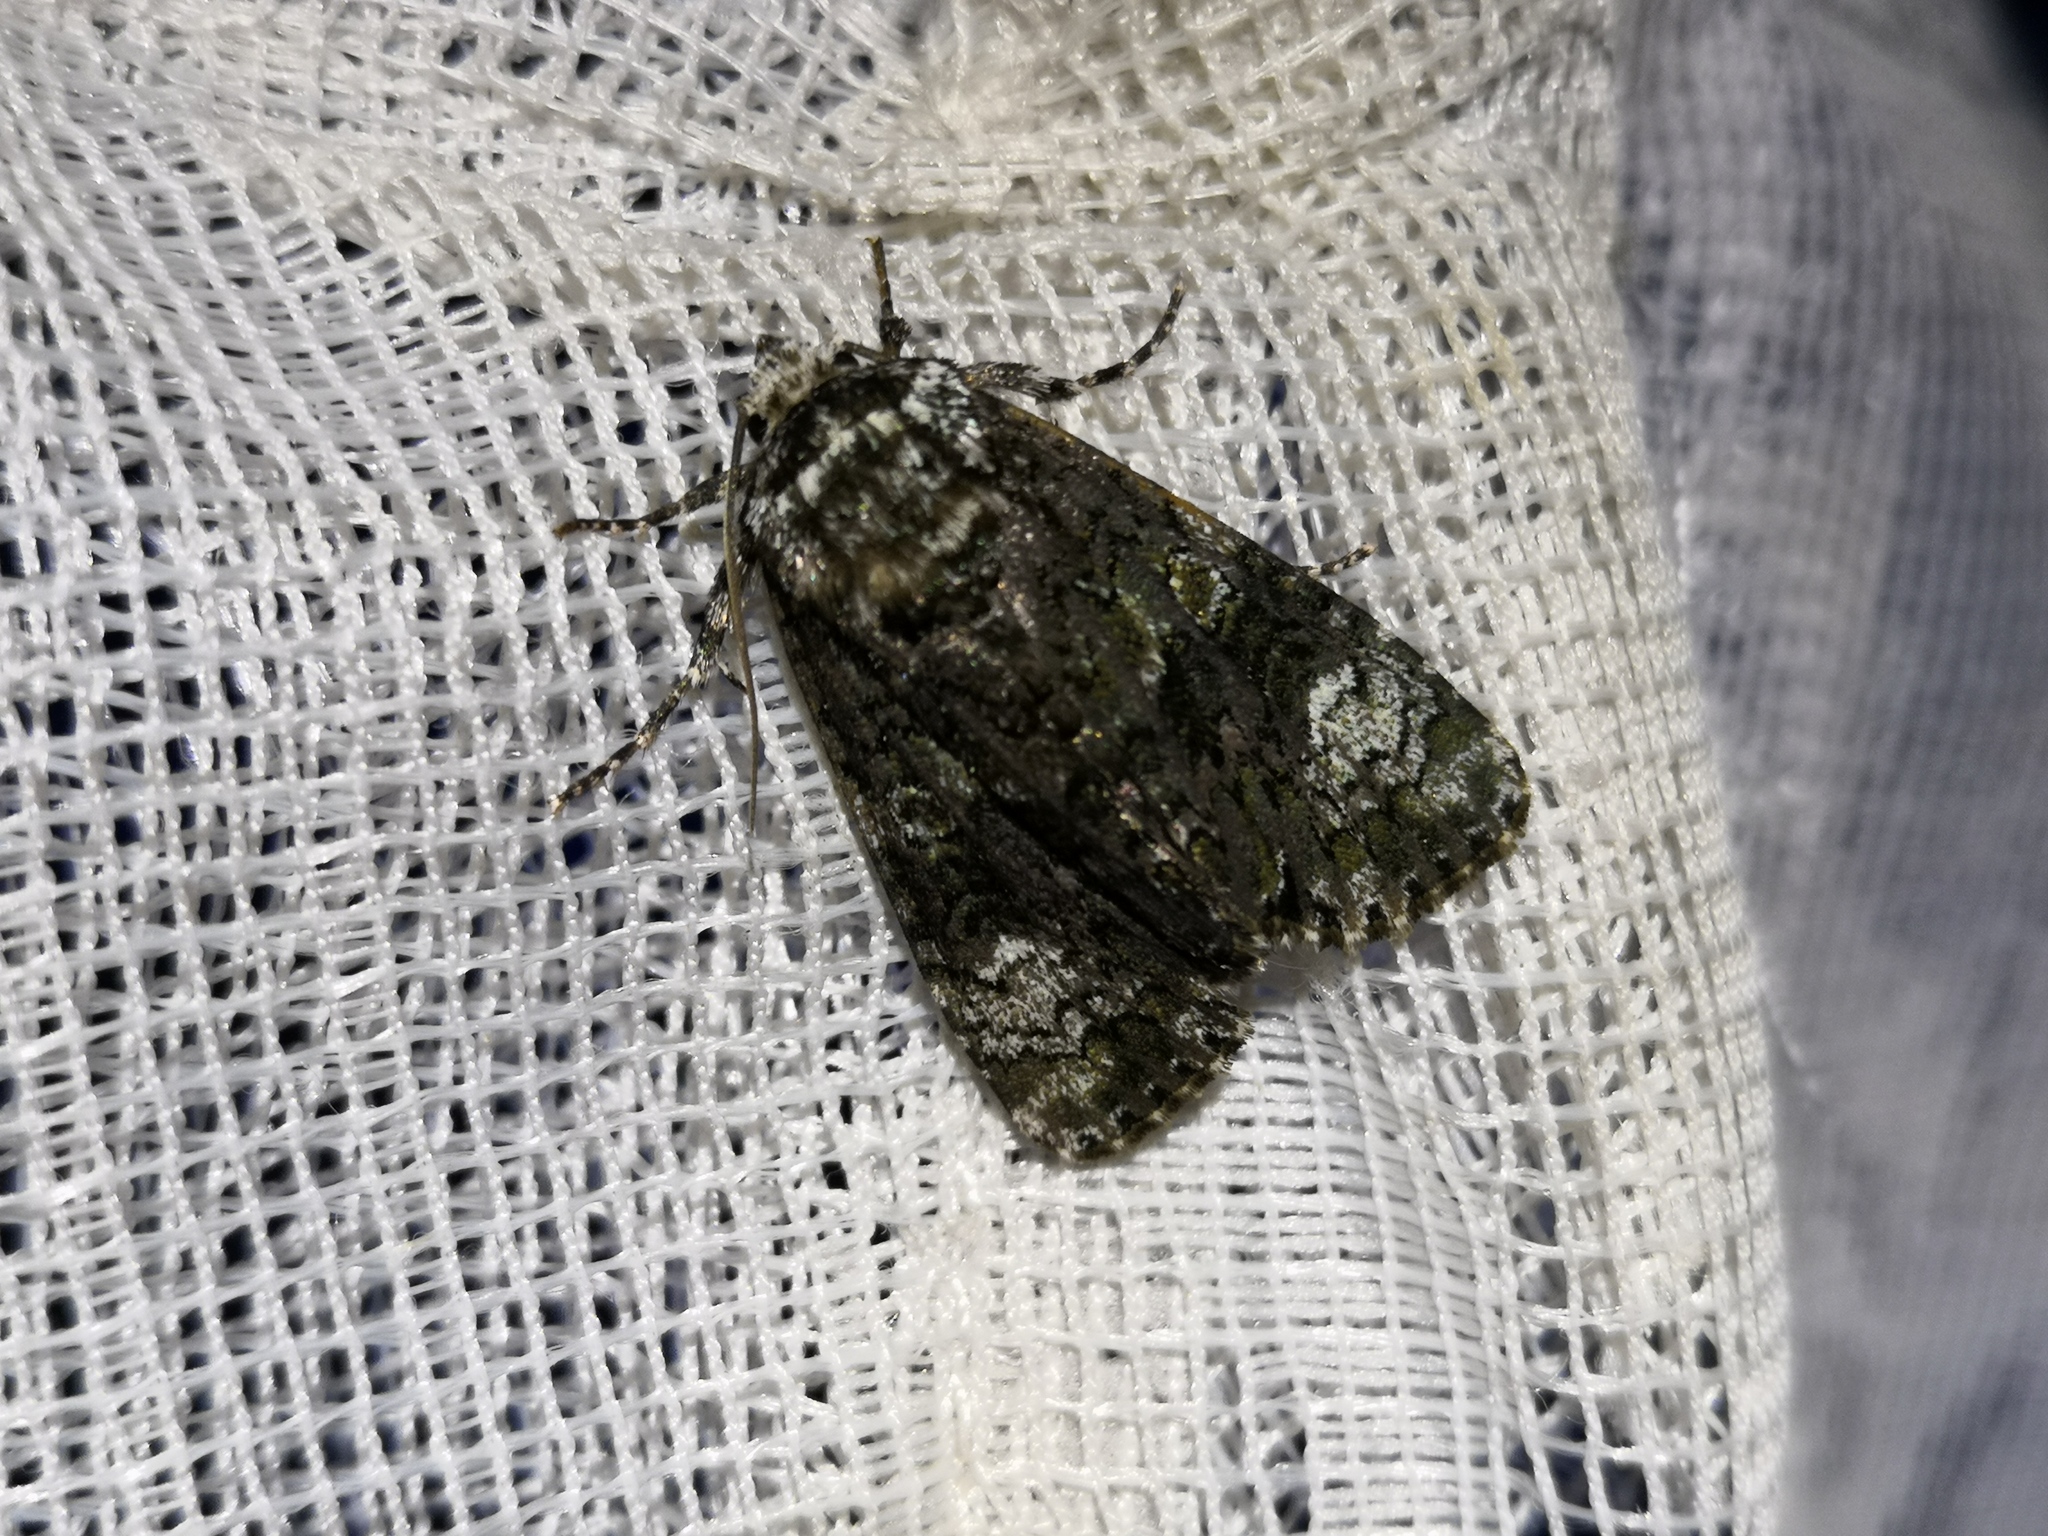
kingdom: Animalia
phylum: Arthropoda
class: Insecta
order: Lepidoptera
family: Noctuidae
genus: Craniophora
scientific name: Craniophora ligustri
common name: Coronet
